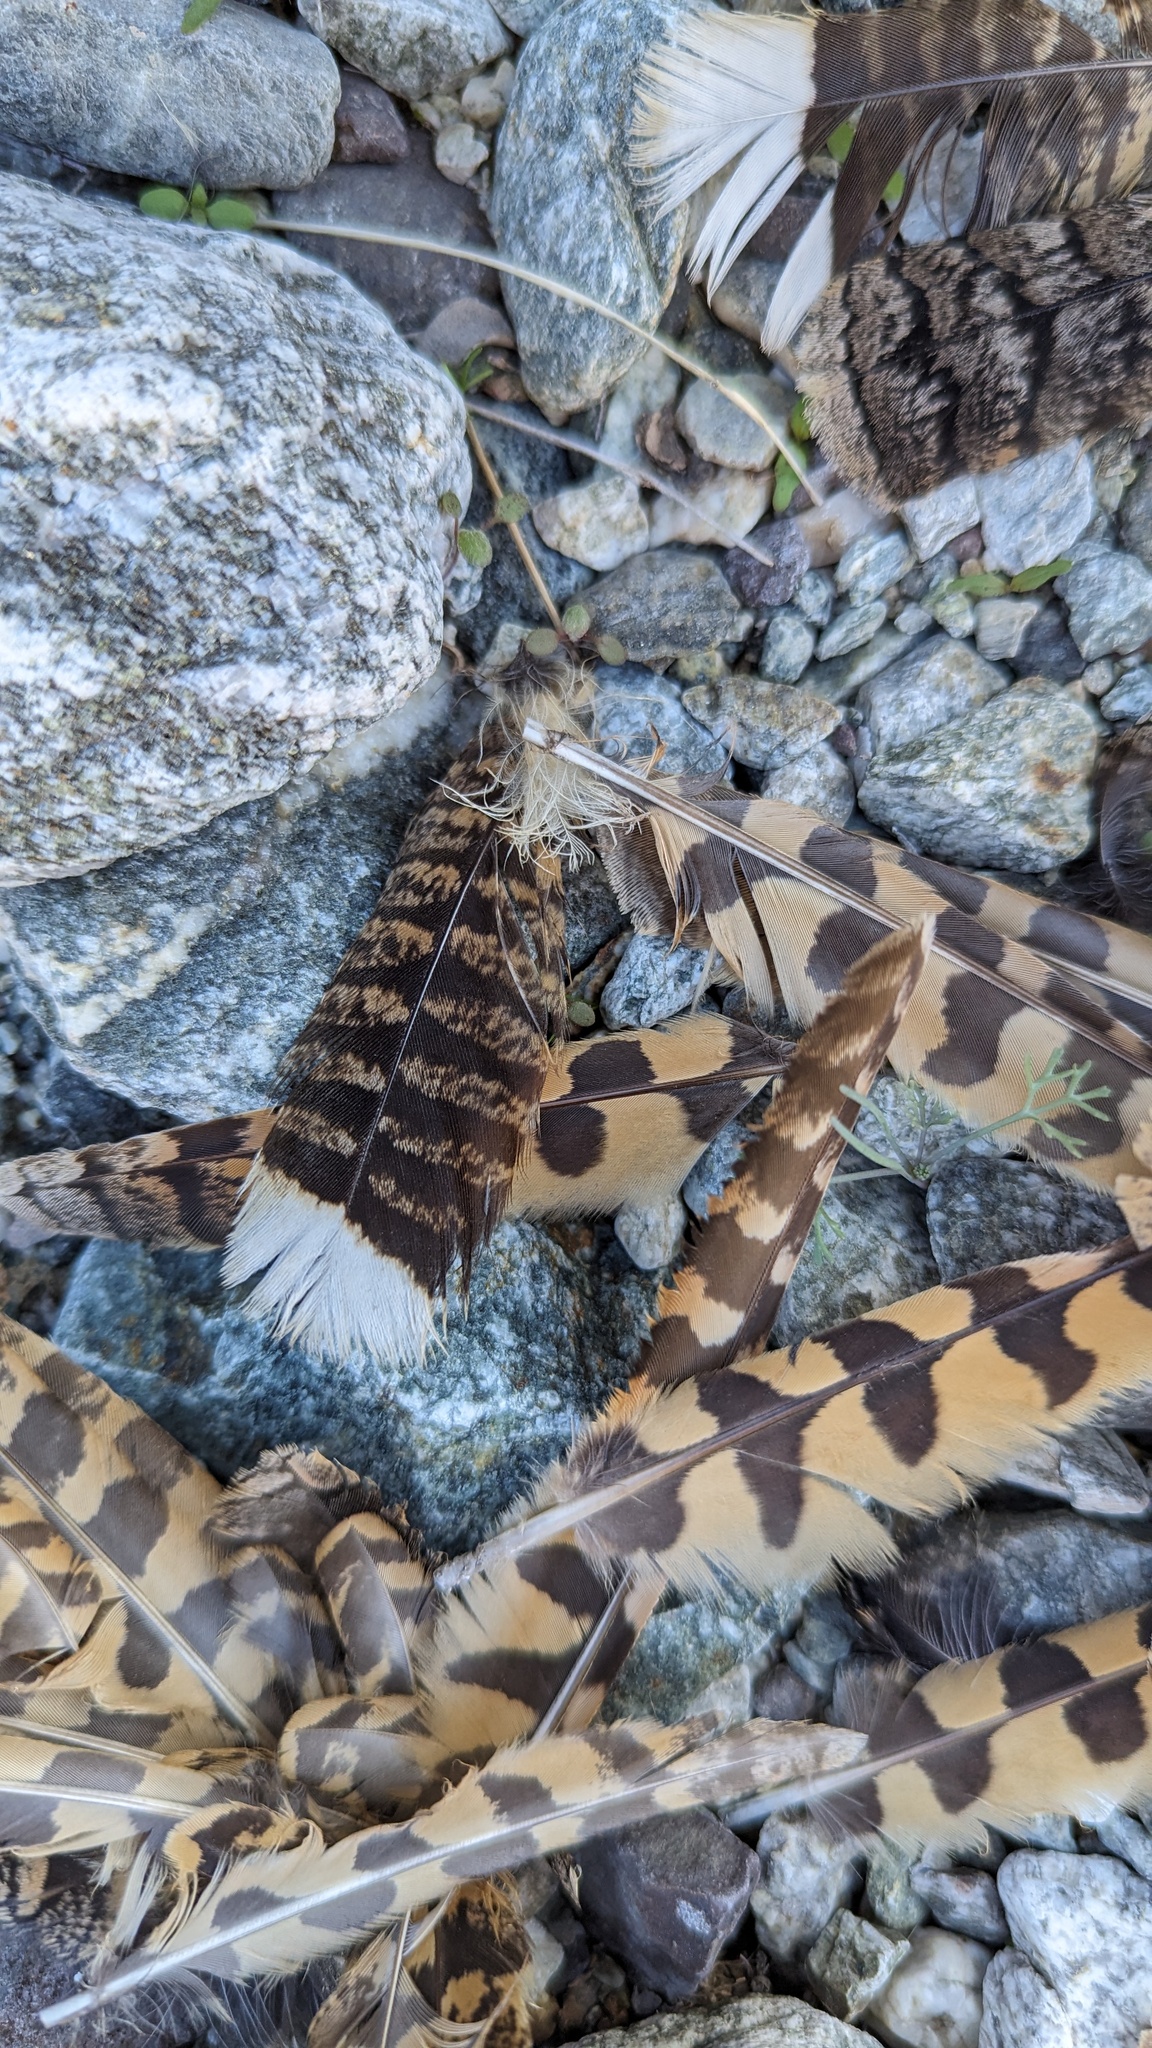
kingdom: Animalia
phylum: Chordata
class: Aves
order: Caprimulgiformes
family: Caprimulgidae
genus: Phalaenoptilus
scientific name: Phalaenoptilus nuttallii
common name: Common poorwill
